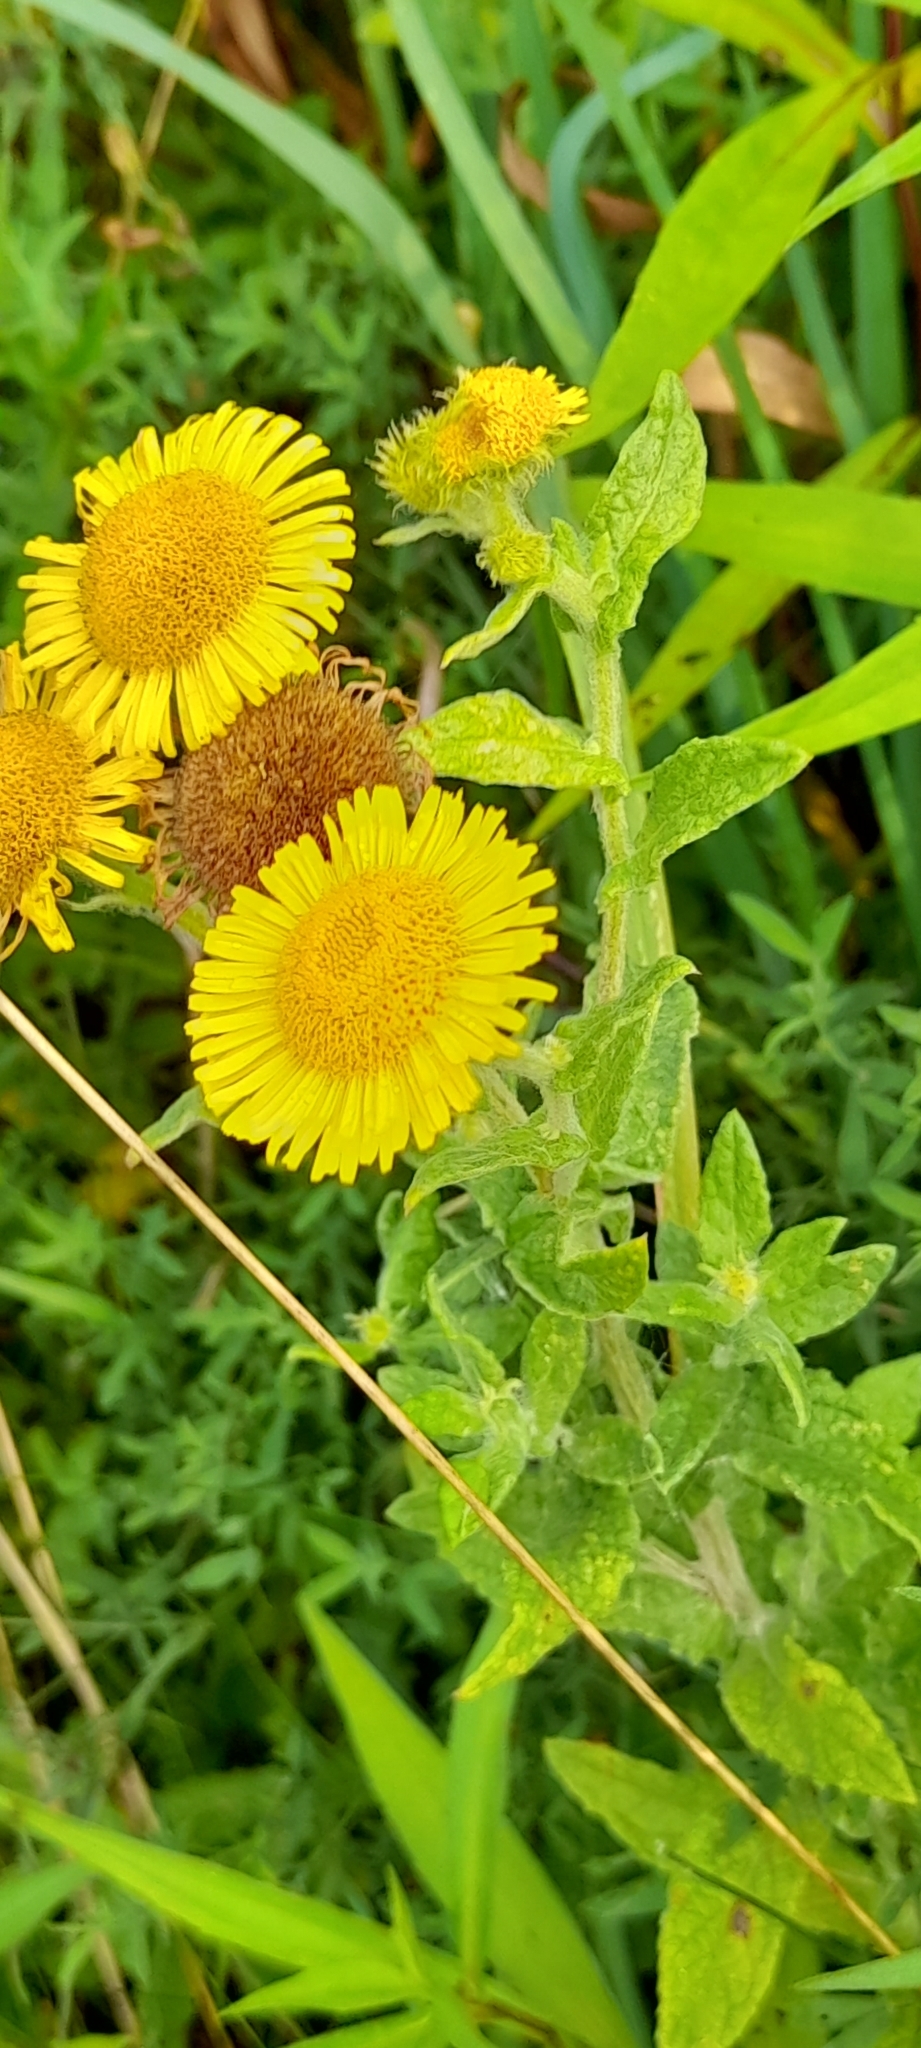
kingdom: Plantae
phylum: Tracheophyta
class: Magnoliopsida
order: Asterales
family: Asteraceae
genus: Pulicaria
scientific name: Pulicaria dysenterica
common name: Common fleabane
